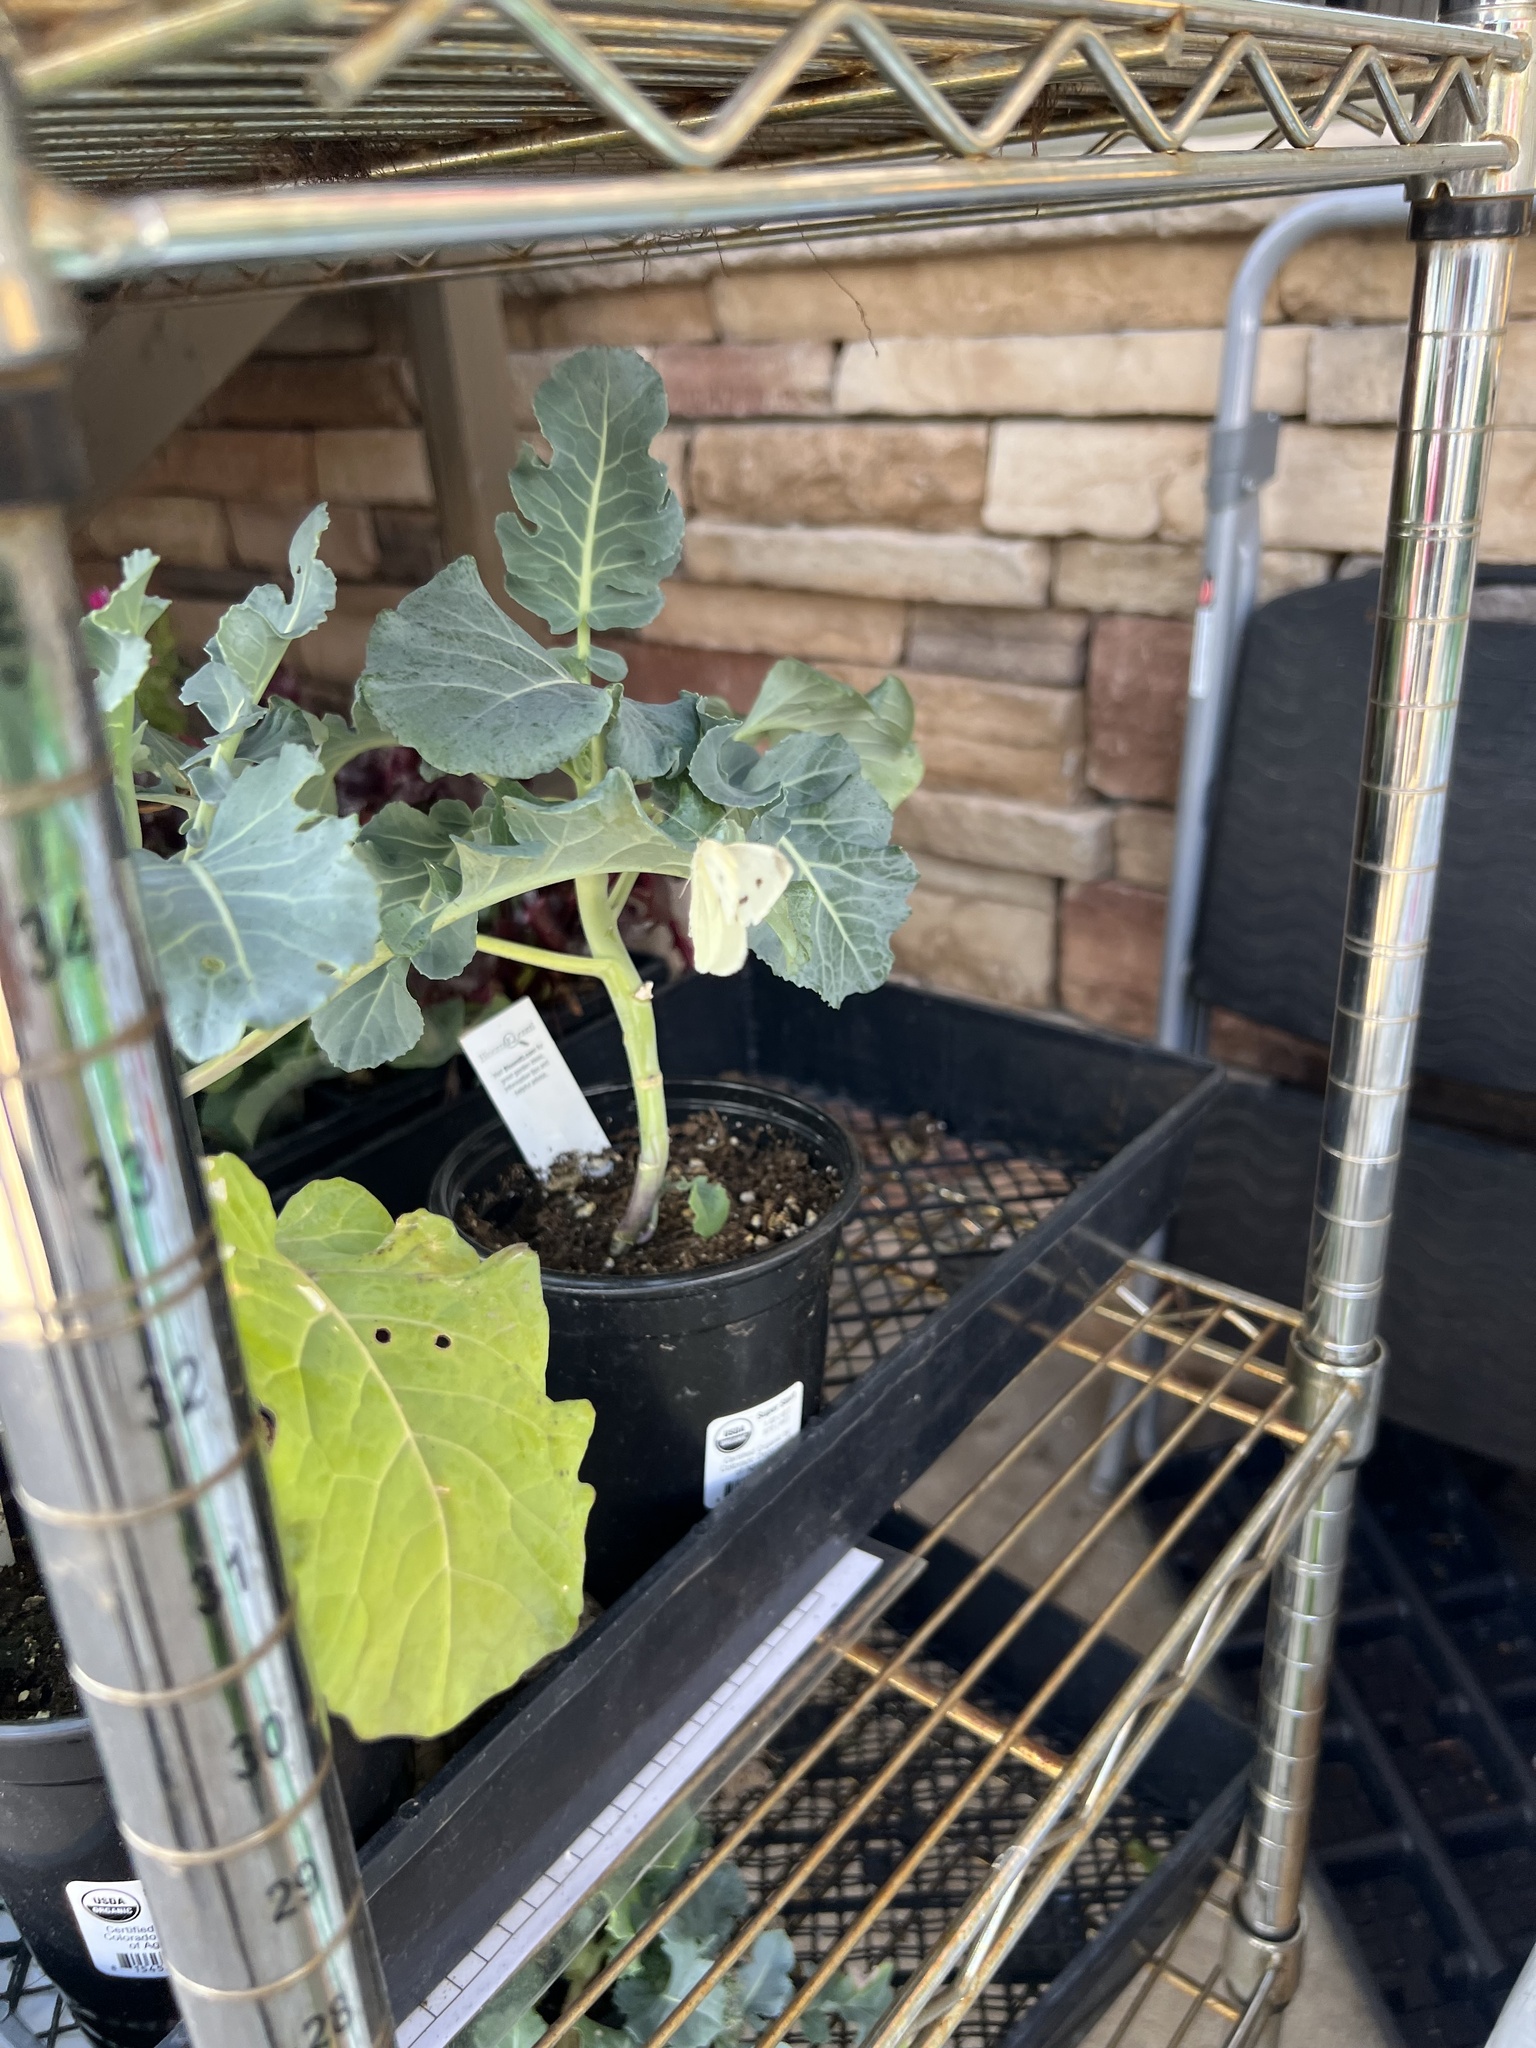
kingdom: Animalia
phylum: Arthropoda
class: Insecta
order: Lepidoptera
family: Pieridae
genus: Pieris
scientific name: Pieris rapae
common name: Small white
